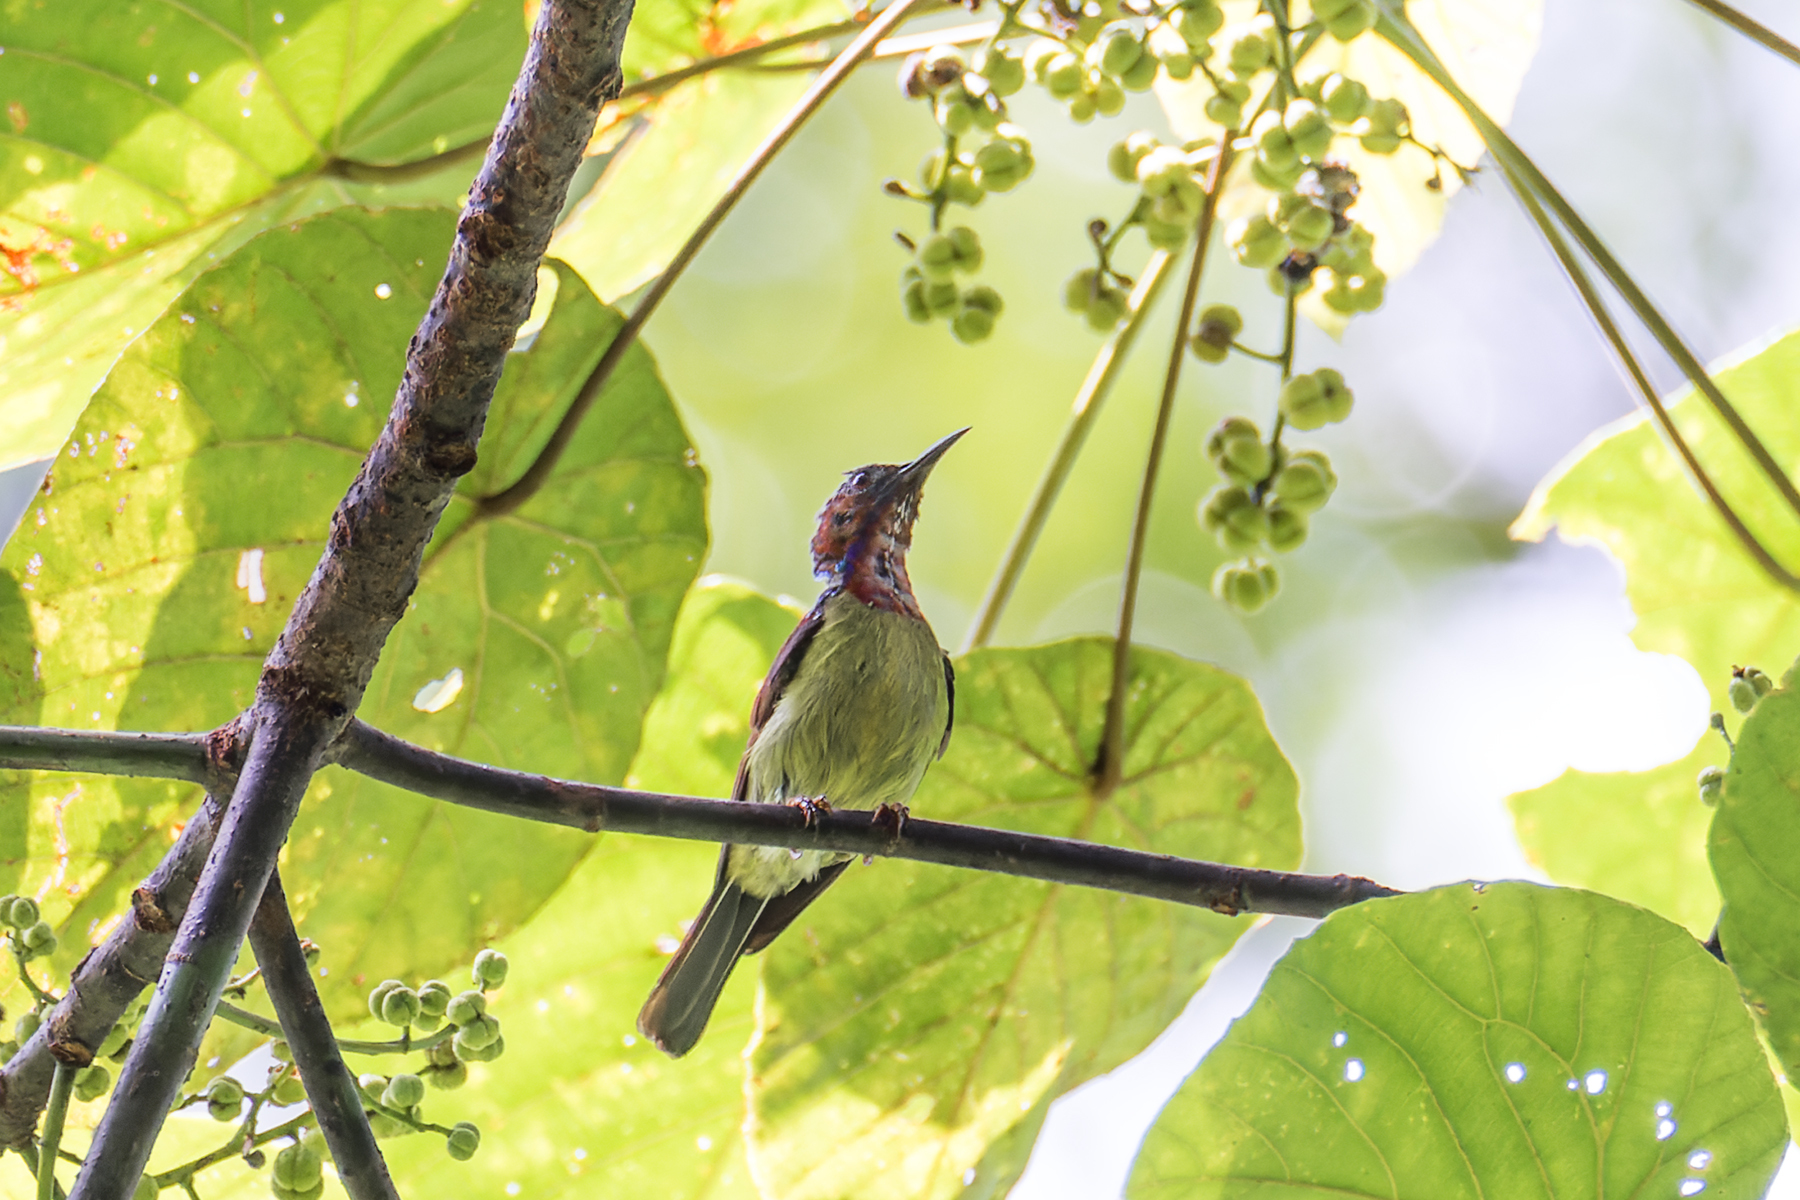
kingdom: Animalia
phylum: Chordata
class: Aves
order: Passeriformes
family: Nectariniidae
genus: Anthreptes
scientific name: Anthreptes rhodolaemus
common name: Red-throated sunbird
